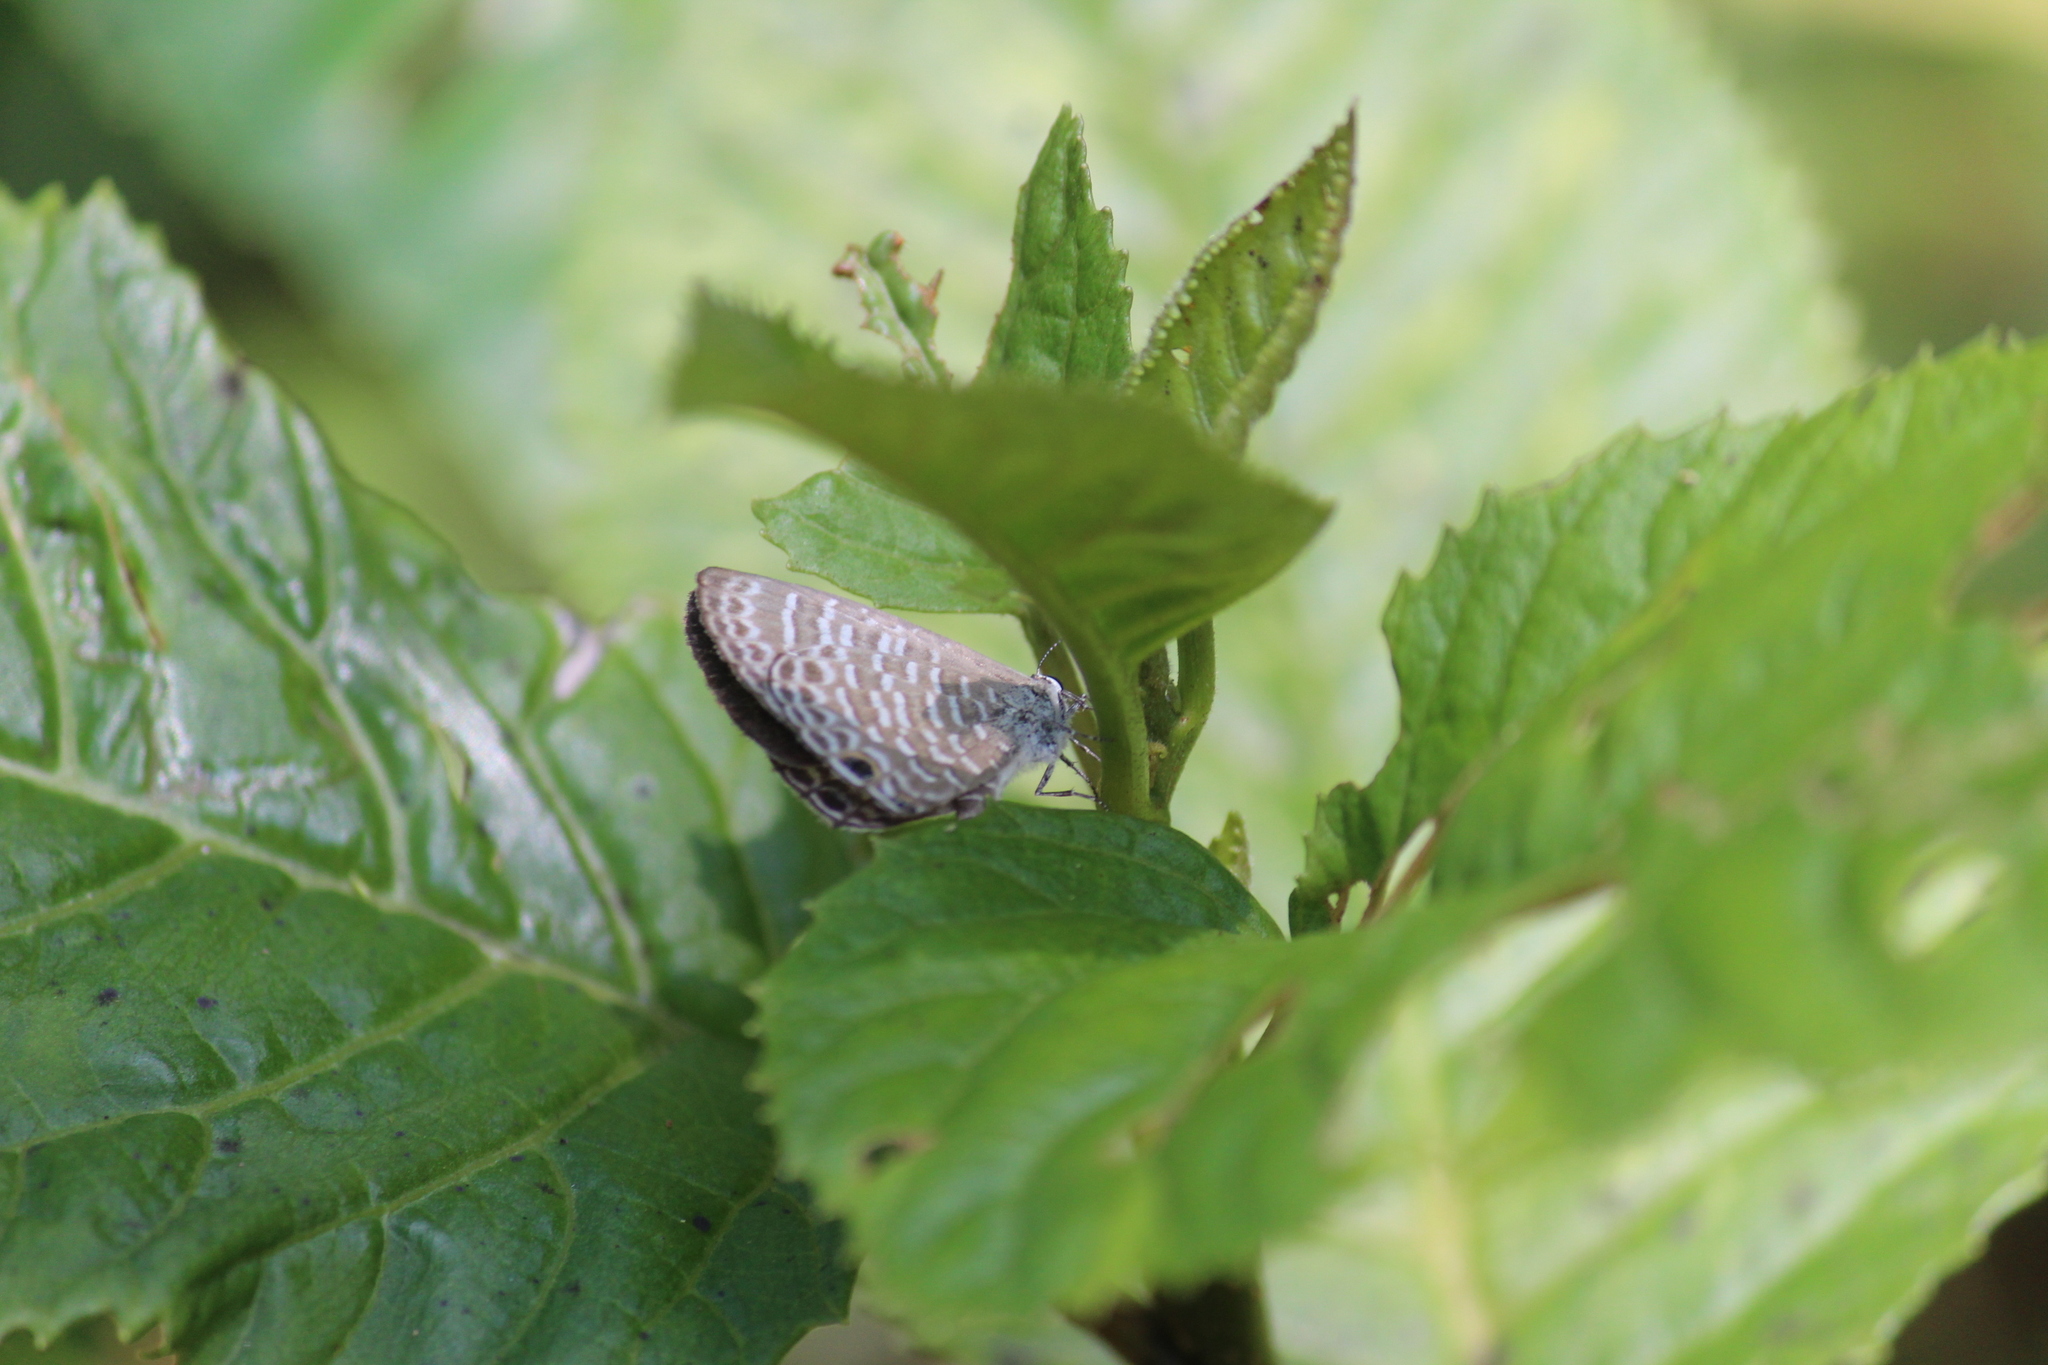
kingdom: Animalia
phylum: Arthropoda
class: Insecta
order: Lepidoptera
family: Lycaenidae
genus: Nacaduba
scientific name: Nacaduba kurava
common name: Transparent 6-line blue
